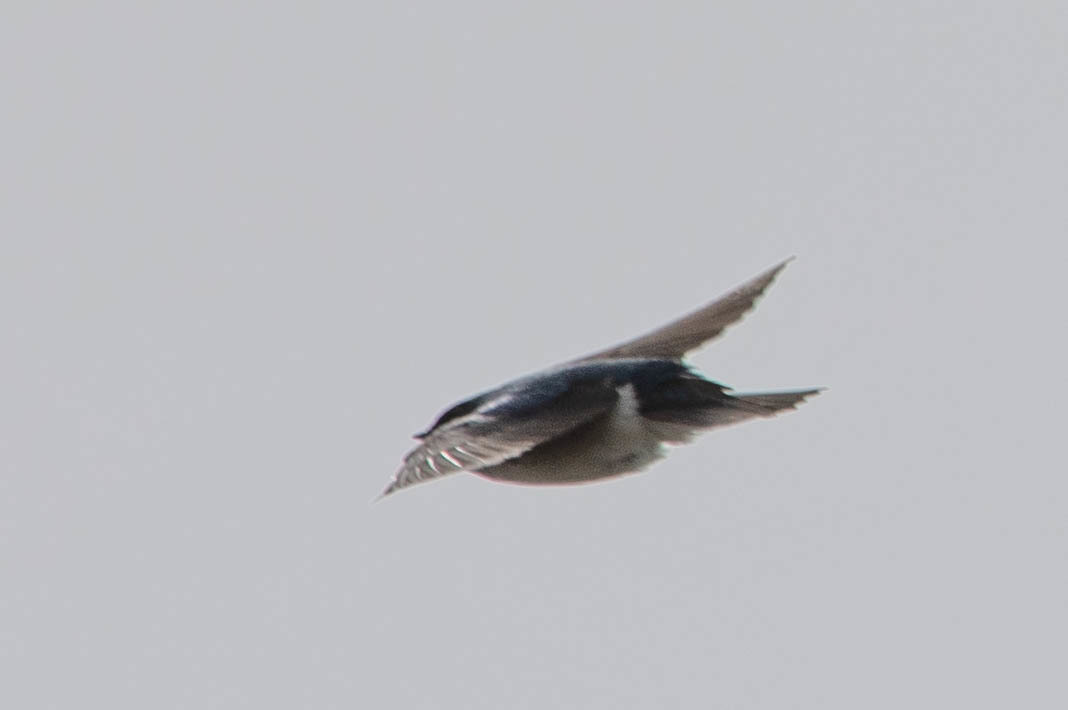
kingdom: Animalia
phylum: Chordata
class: Aves
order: Passeriformes
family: Hirundinidae
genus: Tachycineta
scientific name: Tachycineta bicolor
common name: Tree swallow
